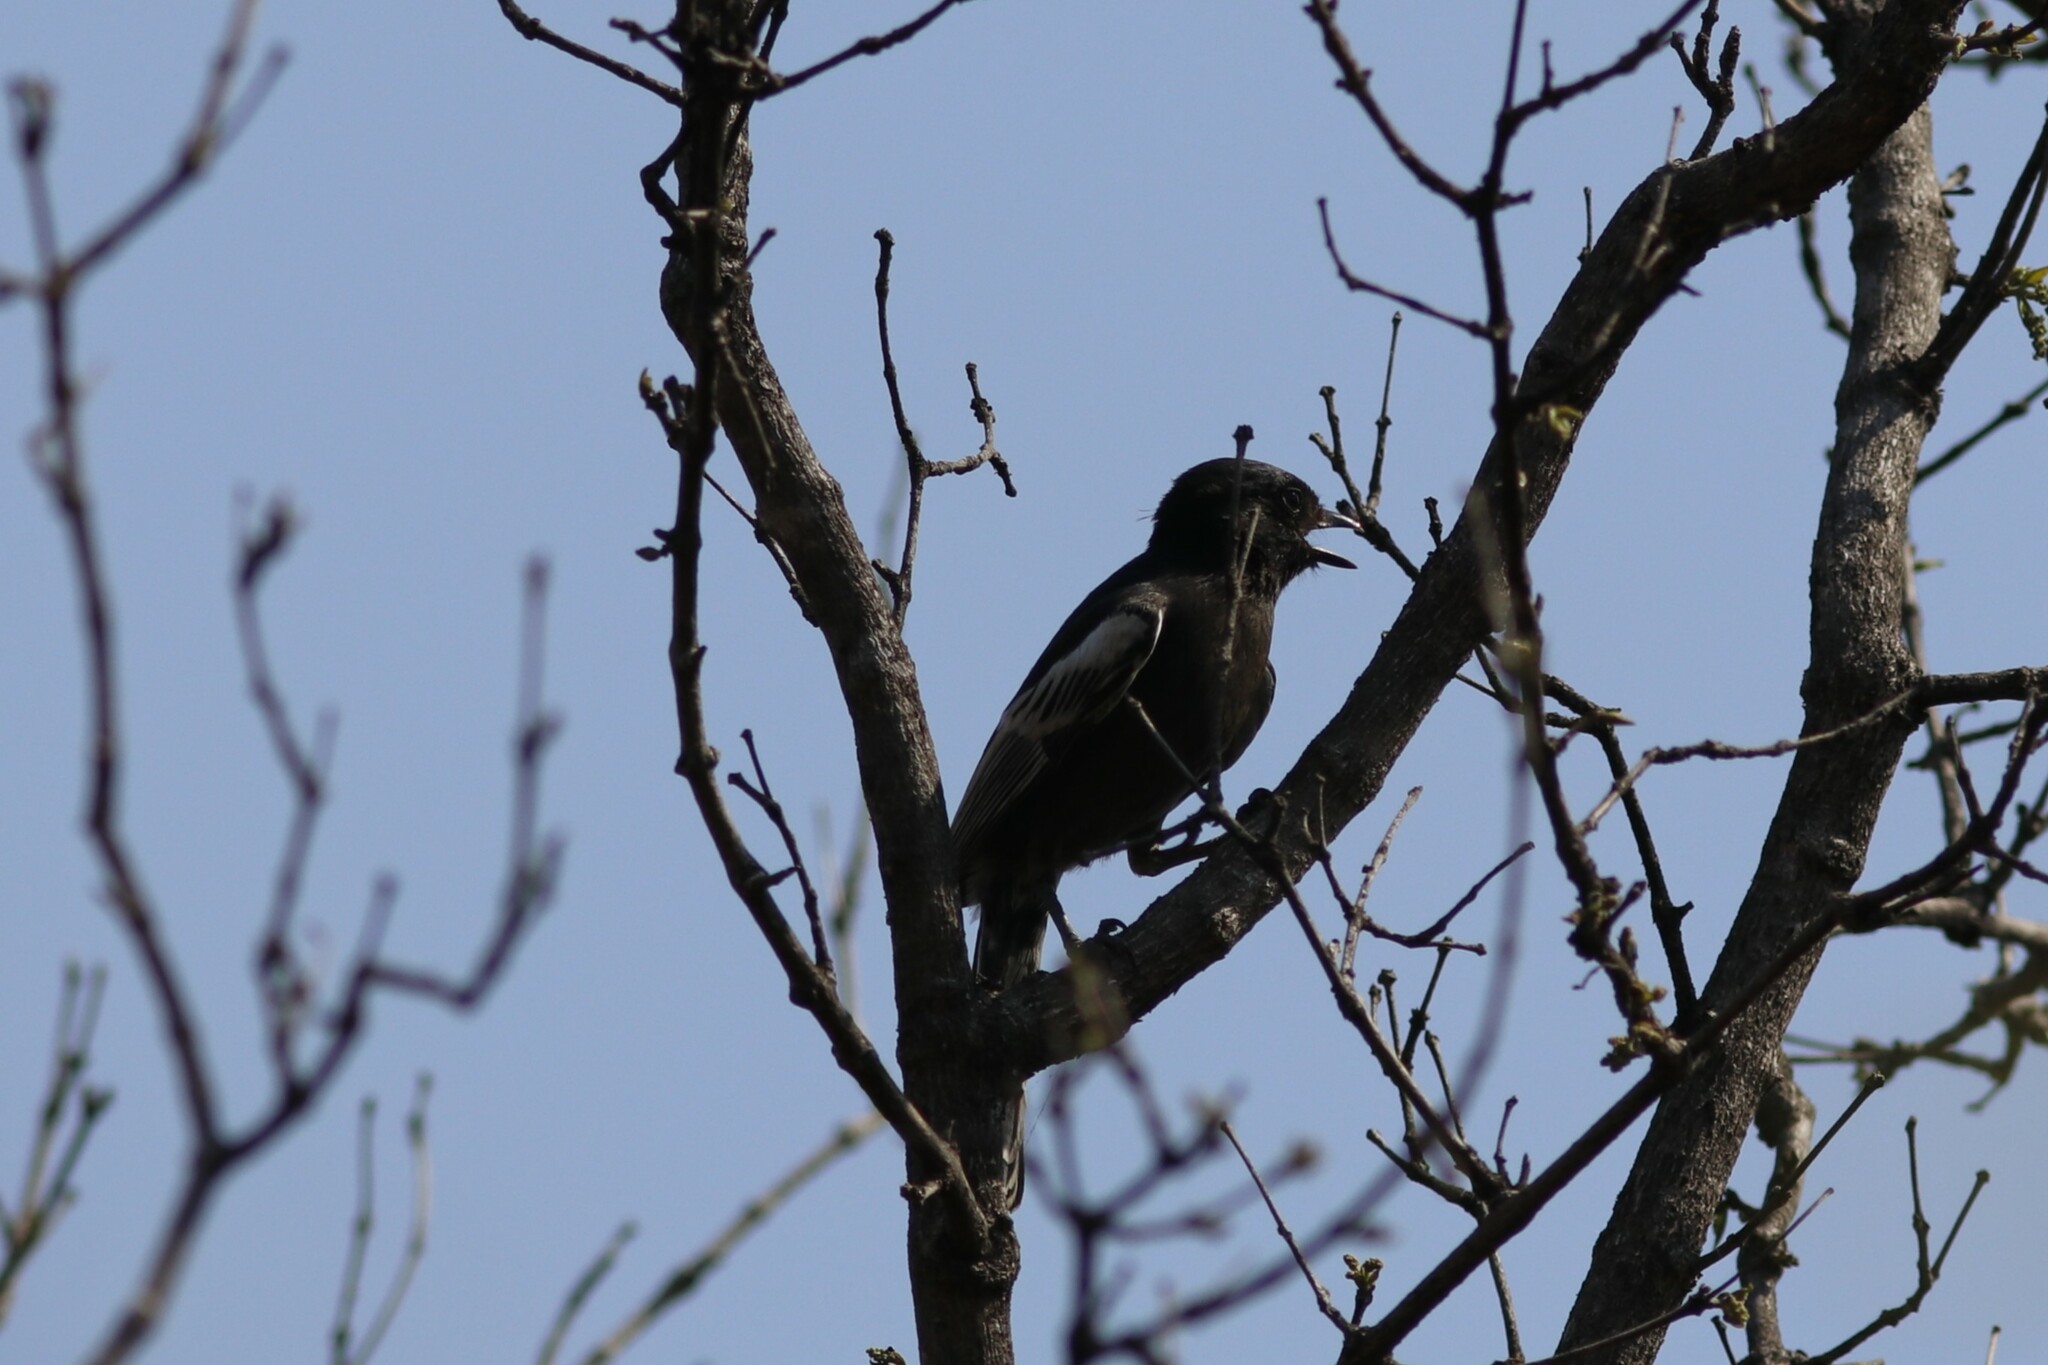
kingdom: Animalia
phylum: Chordata
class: Aves
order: Passeriformes
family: Paridae
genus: Parus
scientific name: Parus niger
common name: Southern black tit
